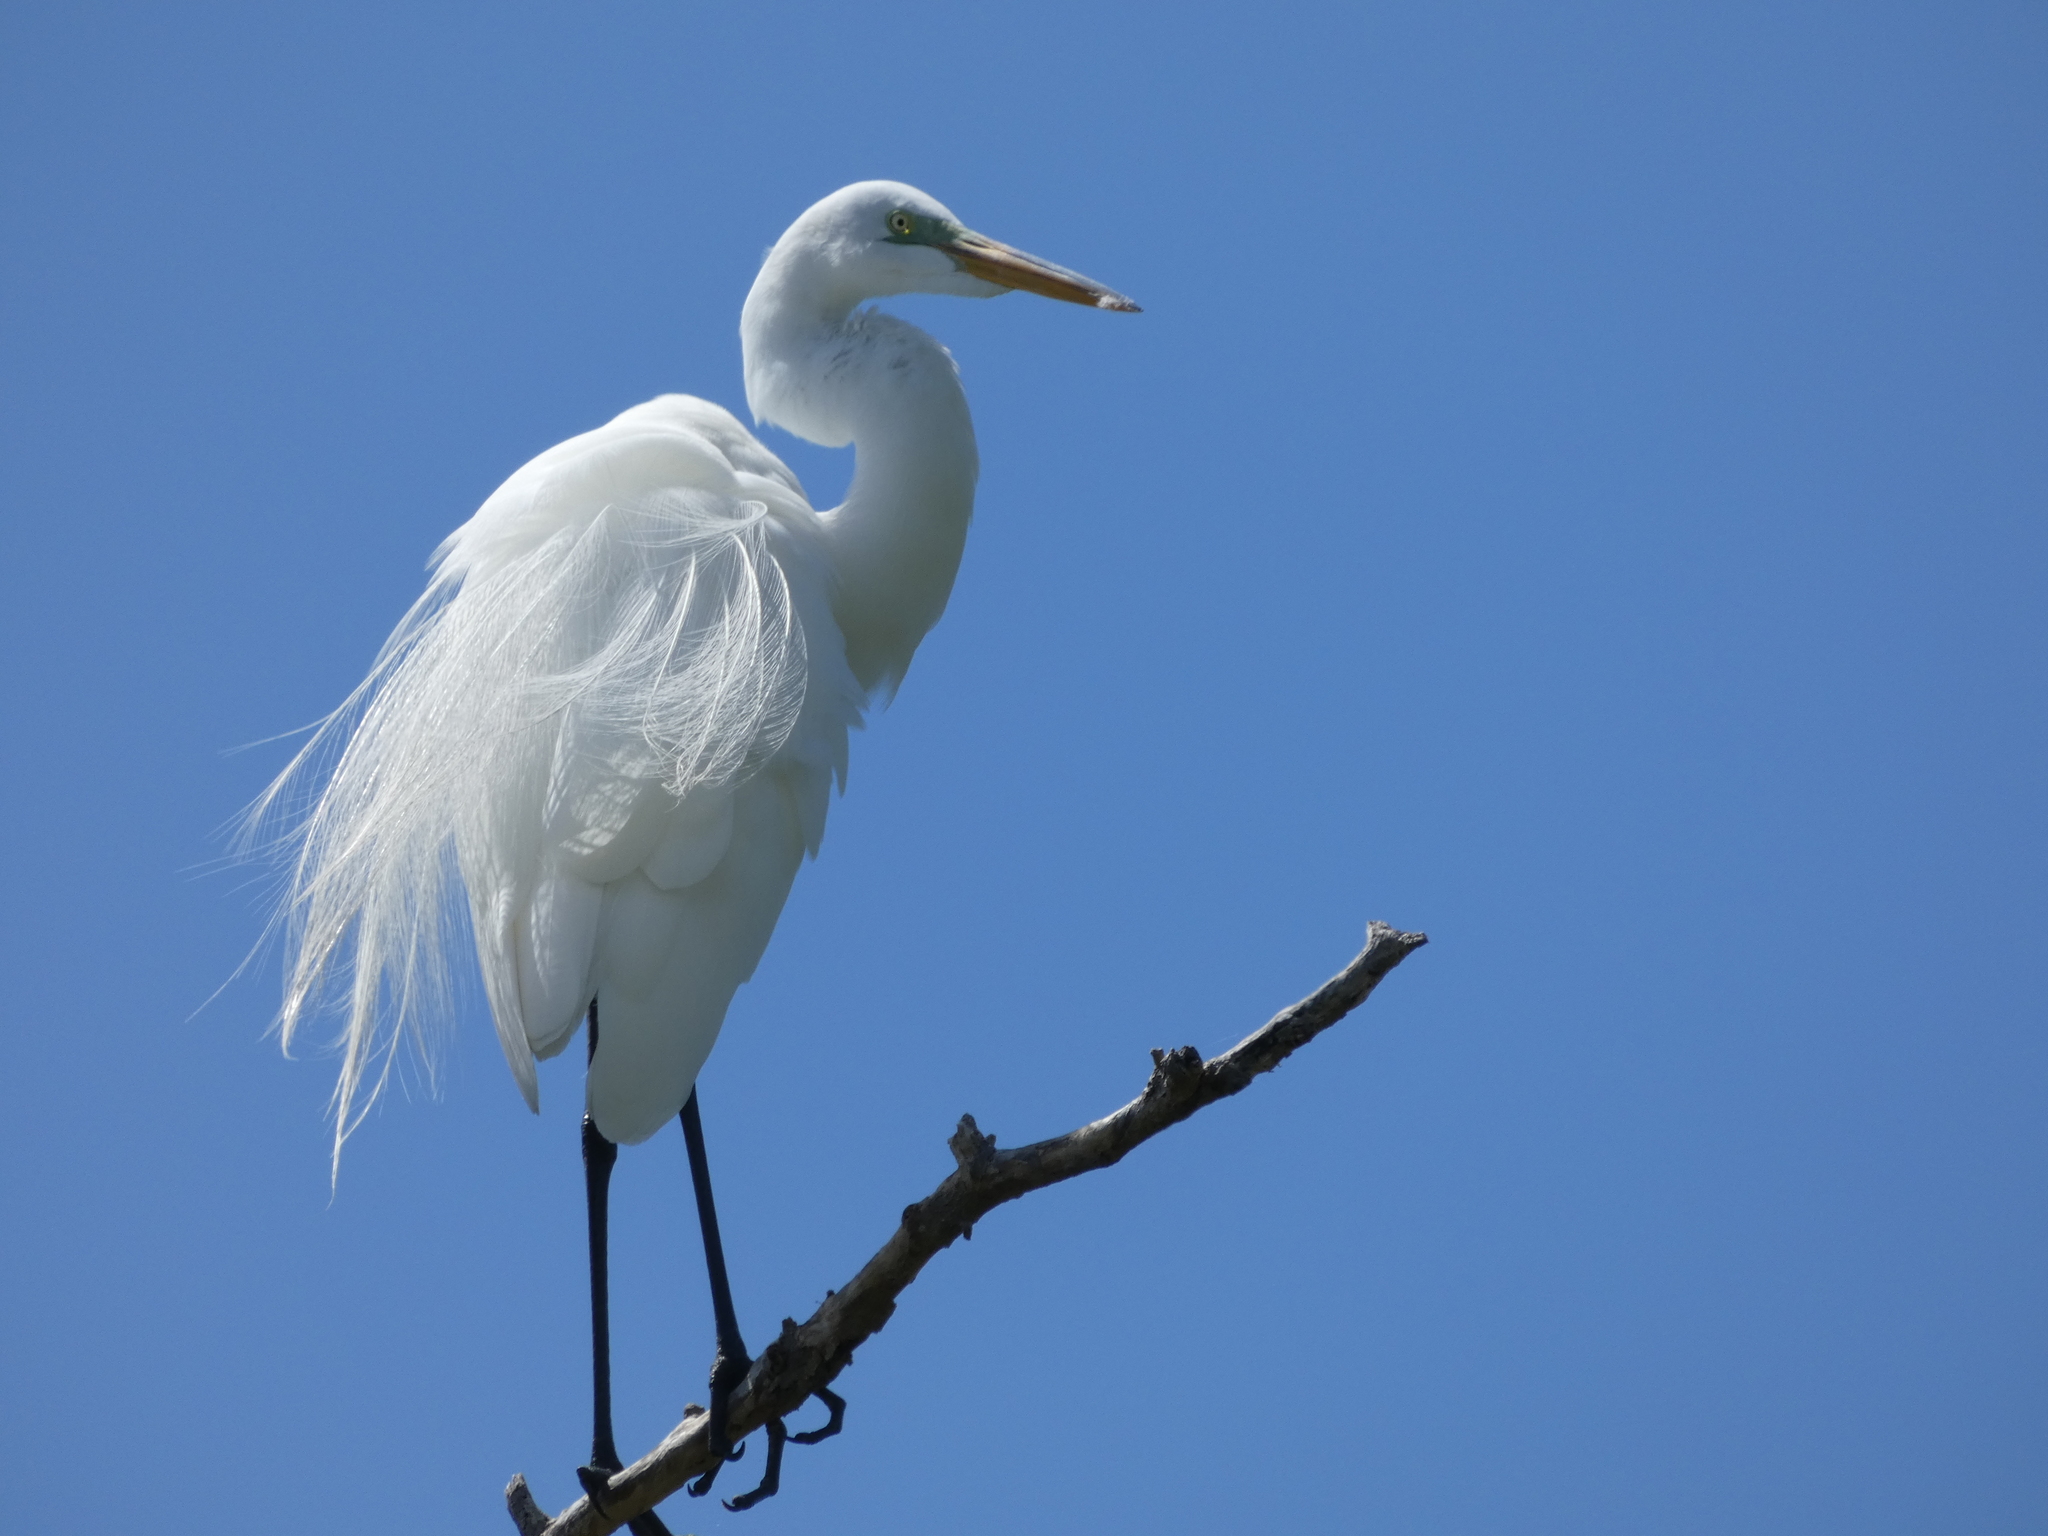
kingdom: Animalia
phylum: Chordata
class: Aves
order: Pelecaniformes
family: Ardeidae
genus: Ardea
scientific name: Ardea alba
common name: Great egret
